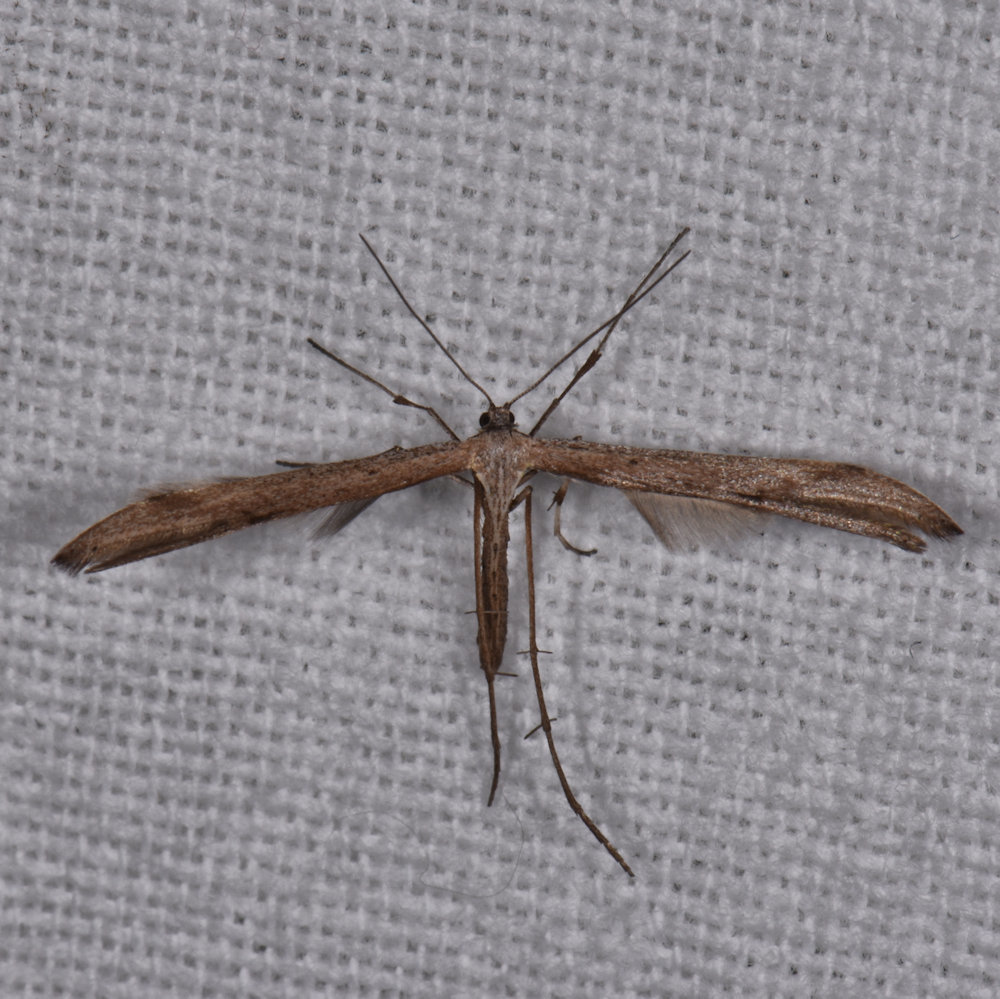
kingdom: Animalia
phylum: Arthropoda
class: Insecta
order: Lepidoptera
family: Pterophoridae
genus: Emmelina
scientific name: Emmelina monodactyla
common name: Common plume
